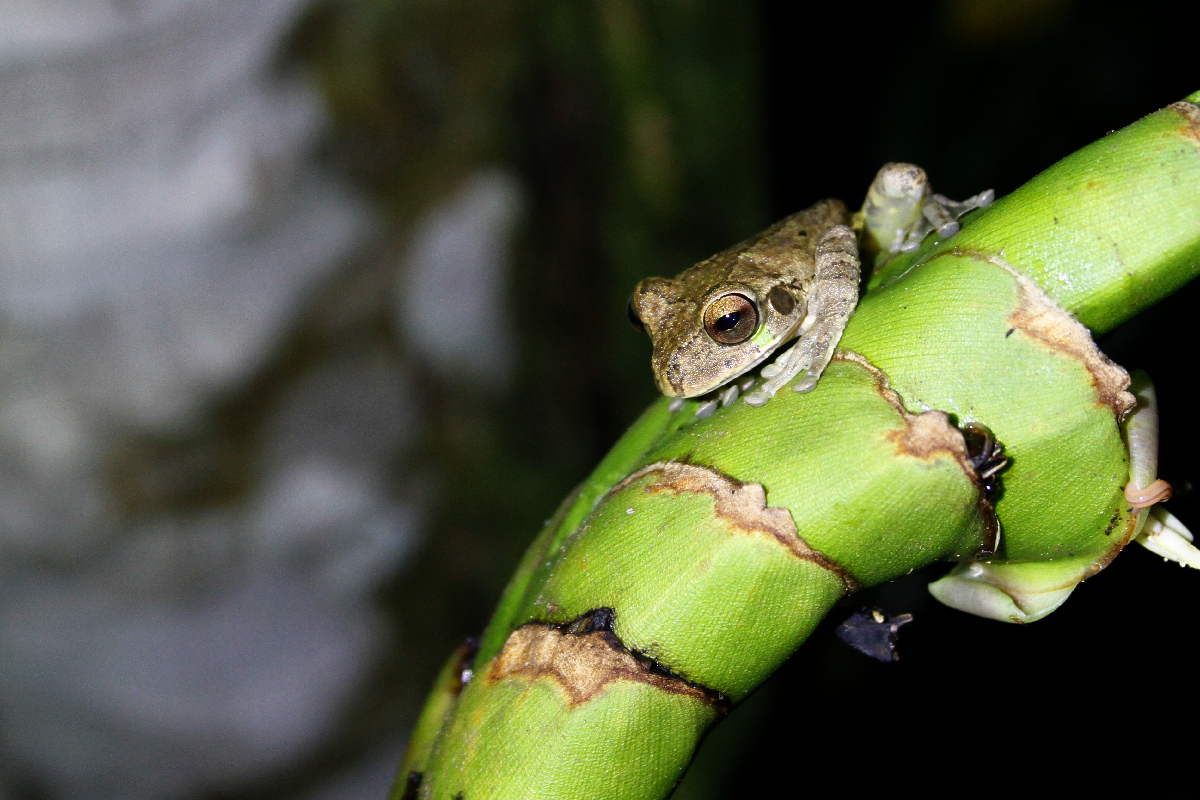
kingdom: Animalia
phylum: Chordata
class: Amphibia
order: Anura
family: Hylidae
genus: Smilisca
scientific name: Smilisca manisorum
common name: Masked tree frog
